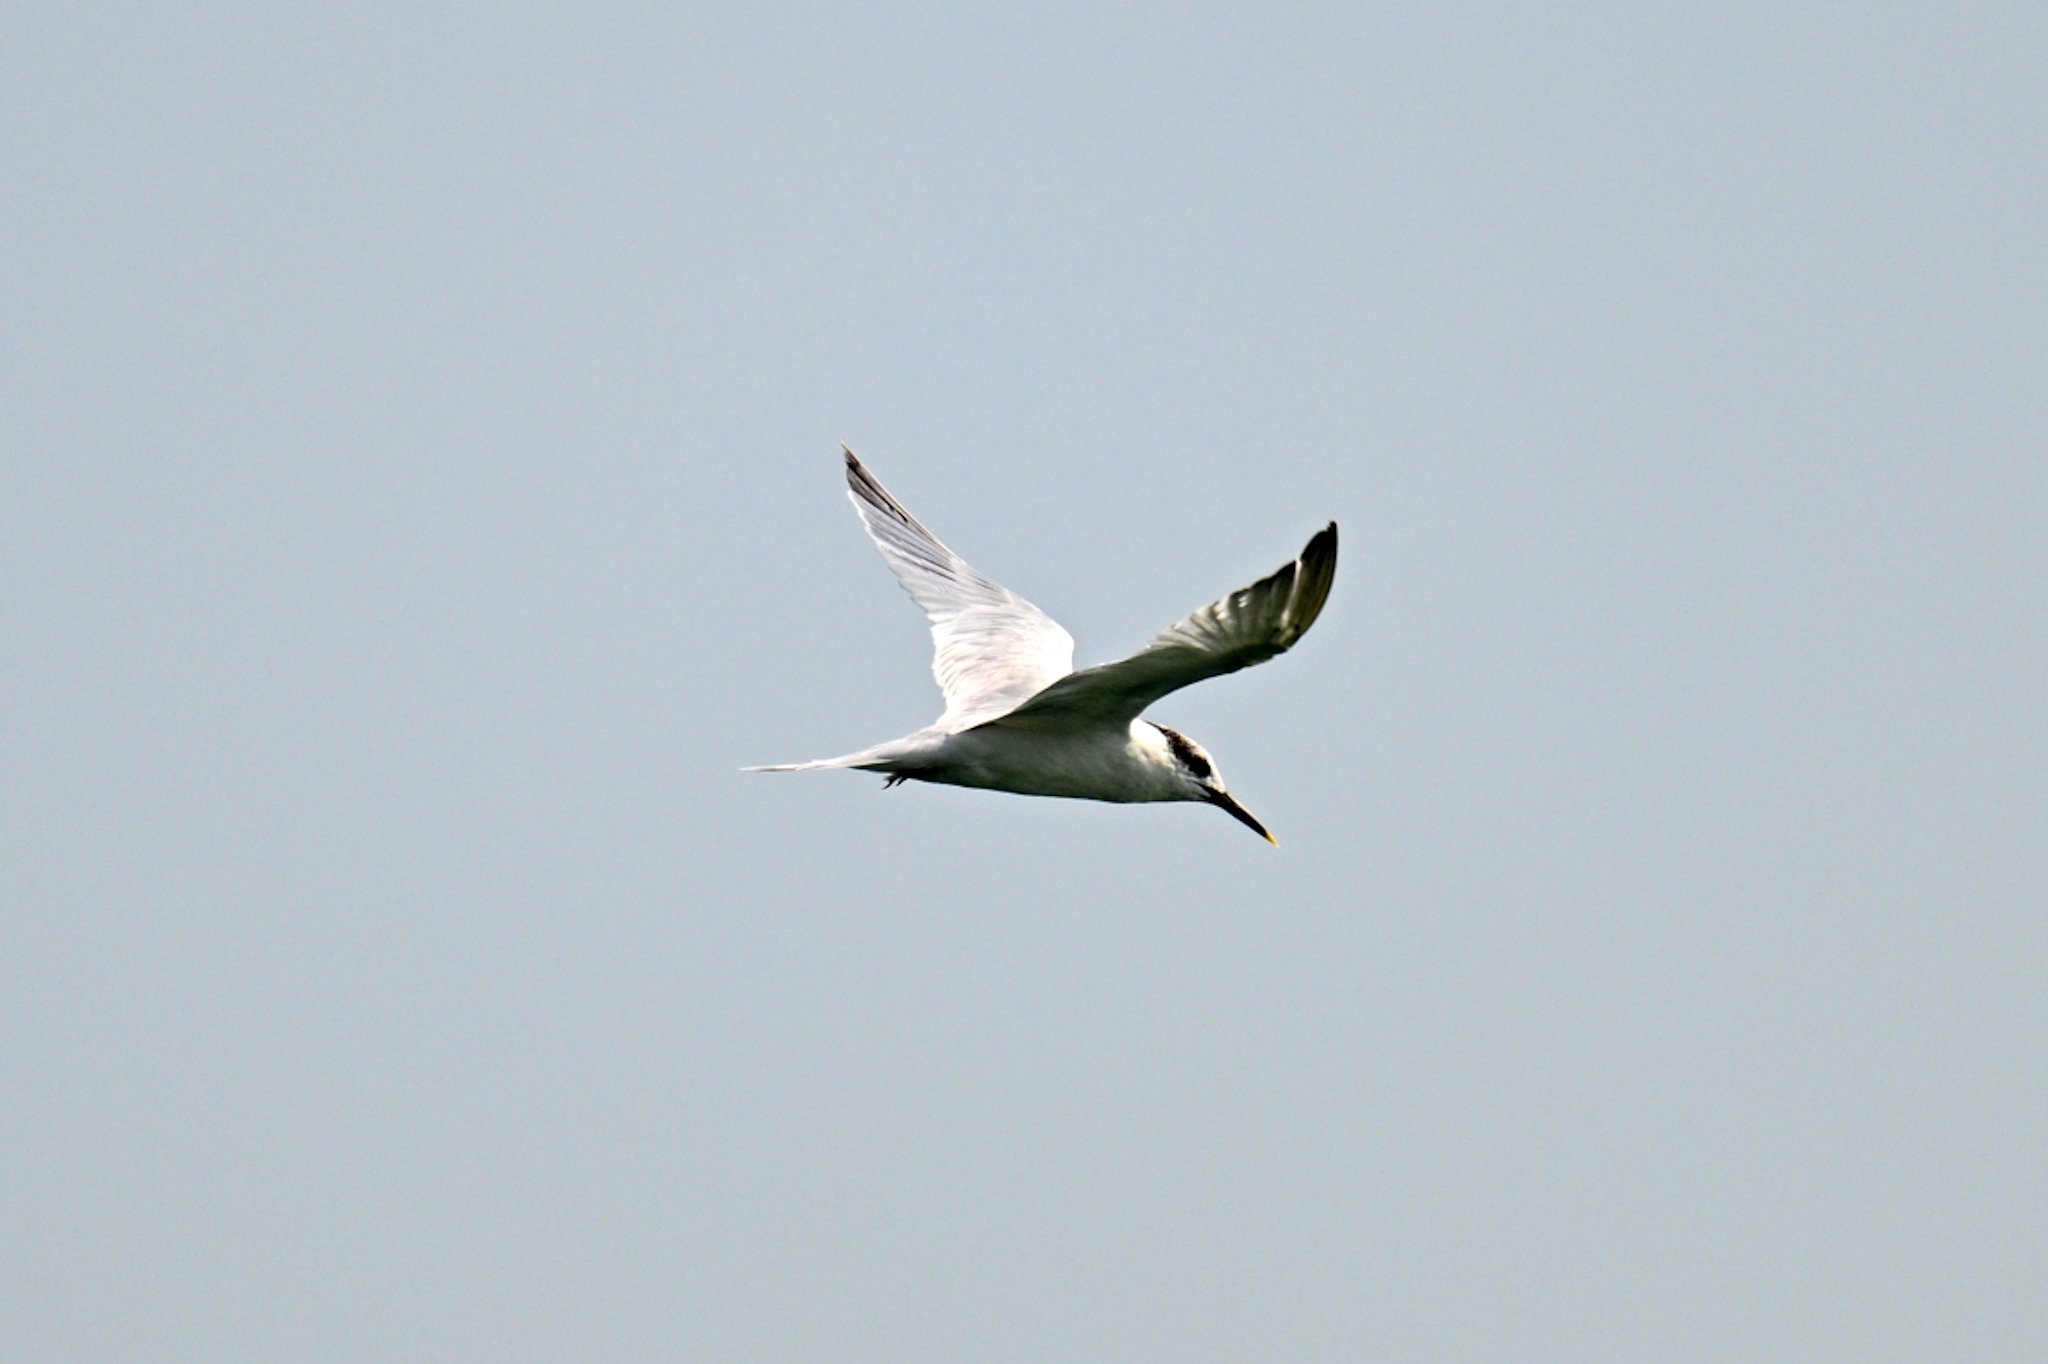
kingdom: Animalia
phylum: Chordata
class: Aves
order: Charadriiformes
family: Laridae
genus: Thalasseus
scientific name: Thalasseus sandvicensis
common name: Sandwich tern
